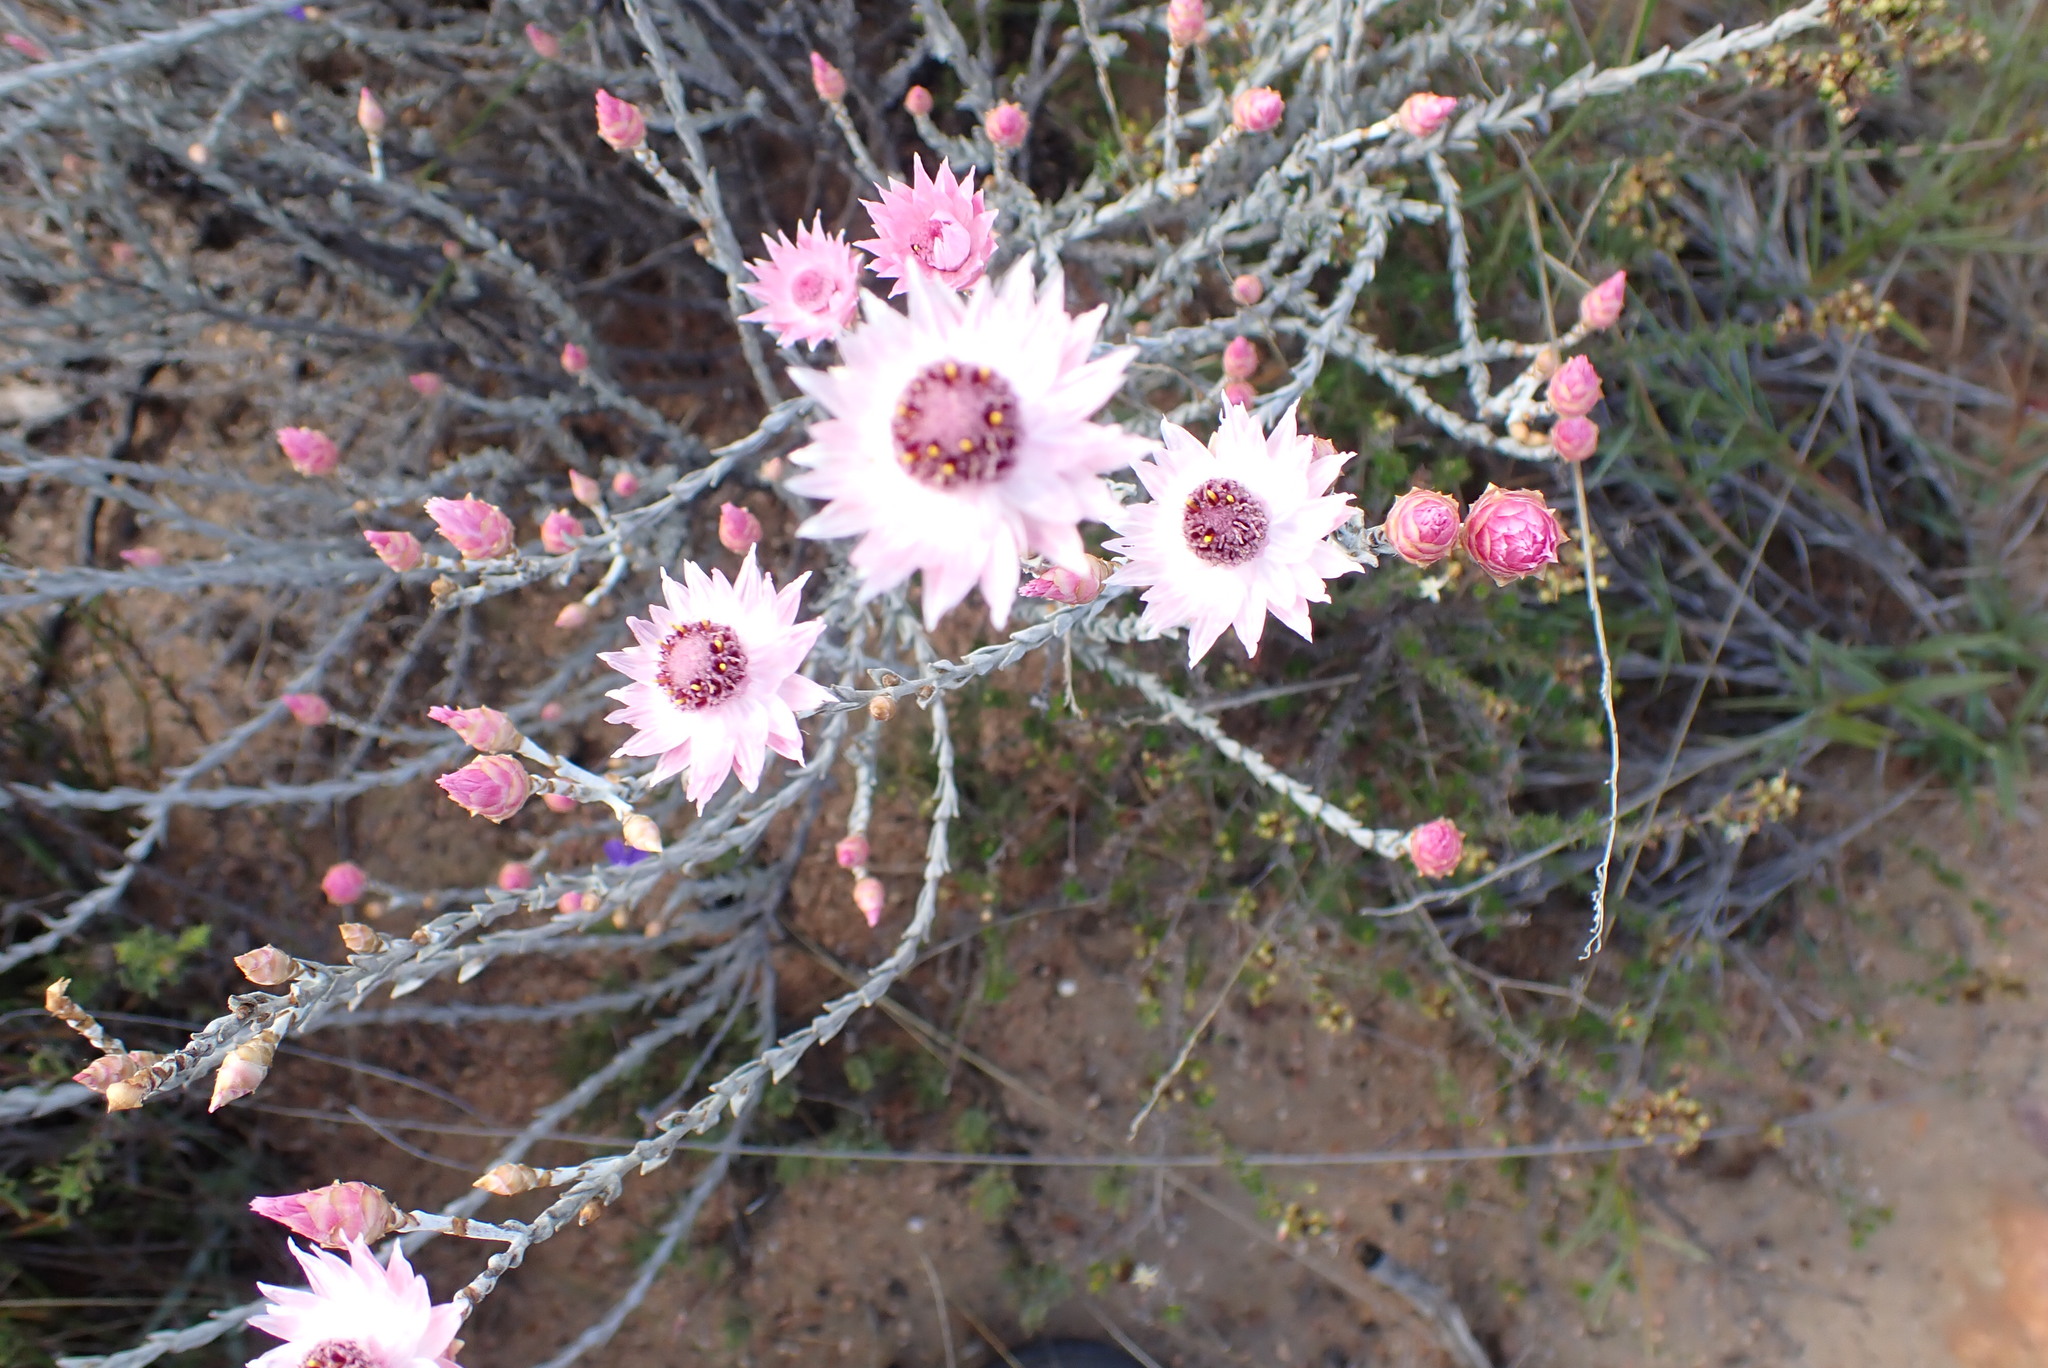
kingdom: Plantae
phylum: Tracheophyta
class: Magnoliopsida
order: Asterales
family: Asteraceae
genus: Syncarpha
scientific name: Syncarpha canescens
